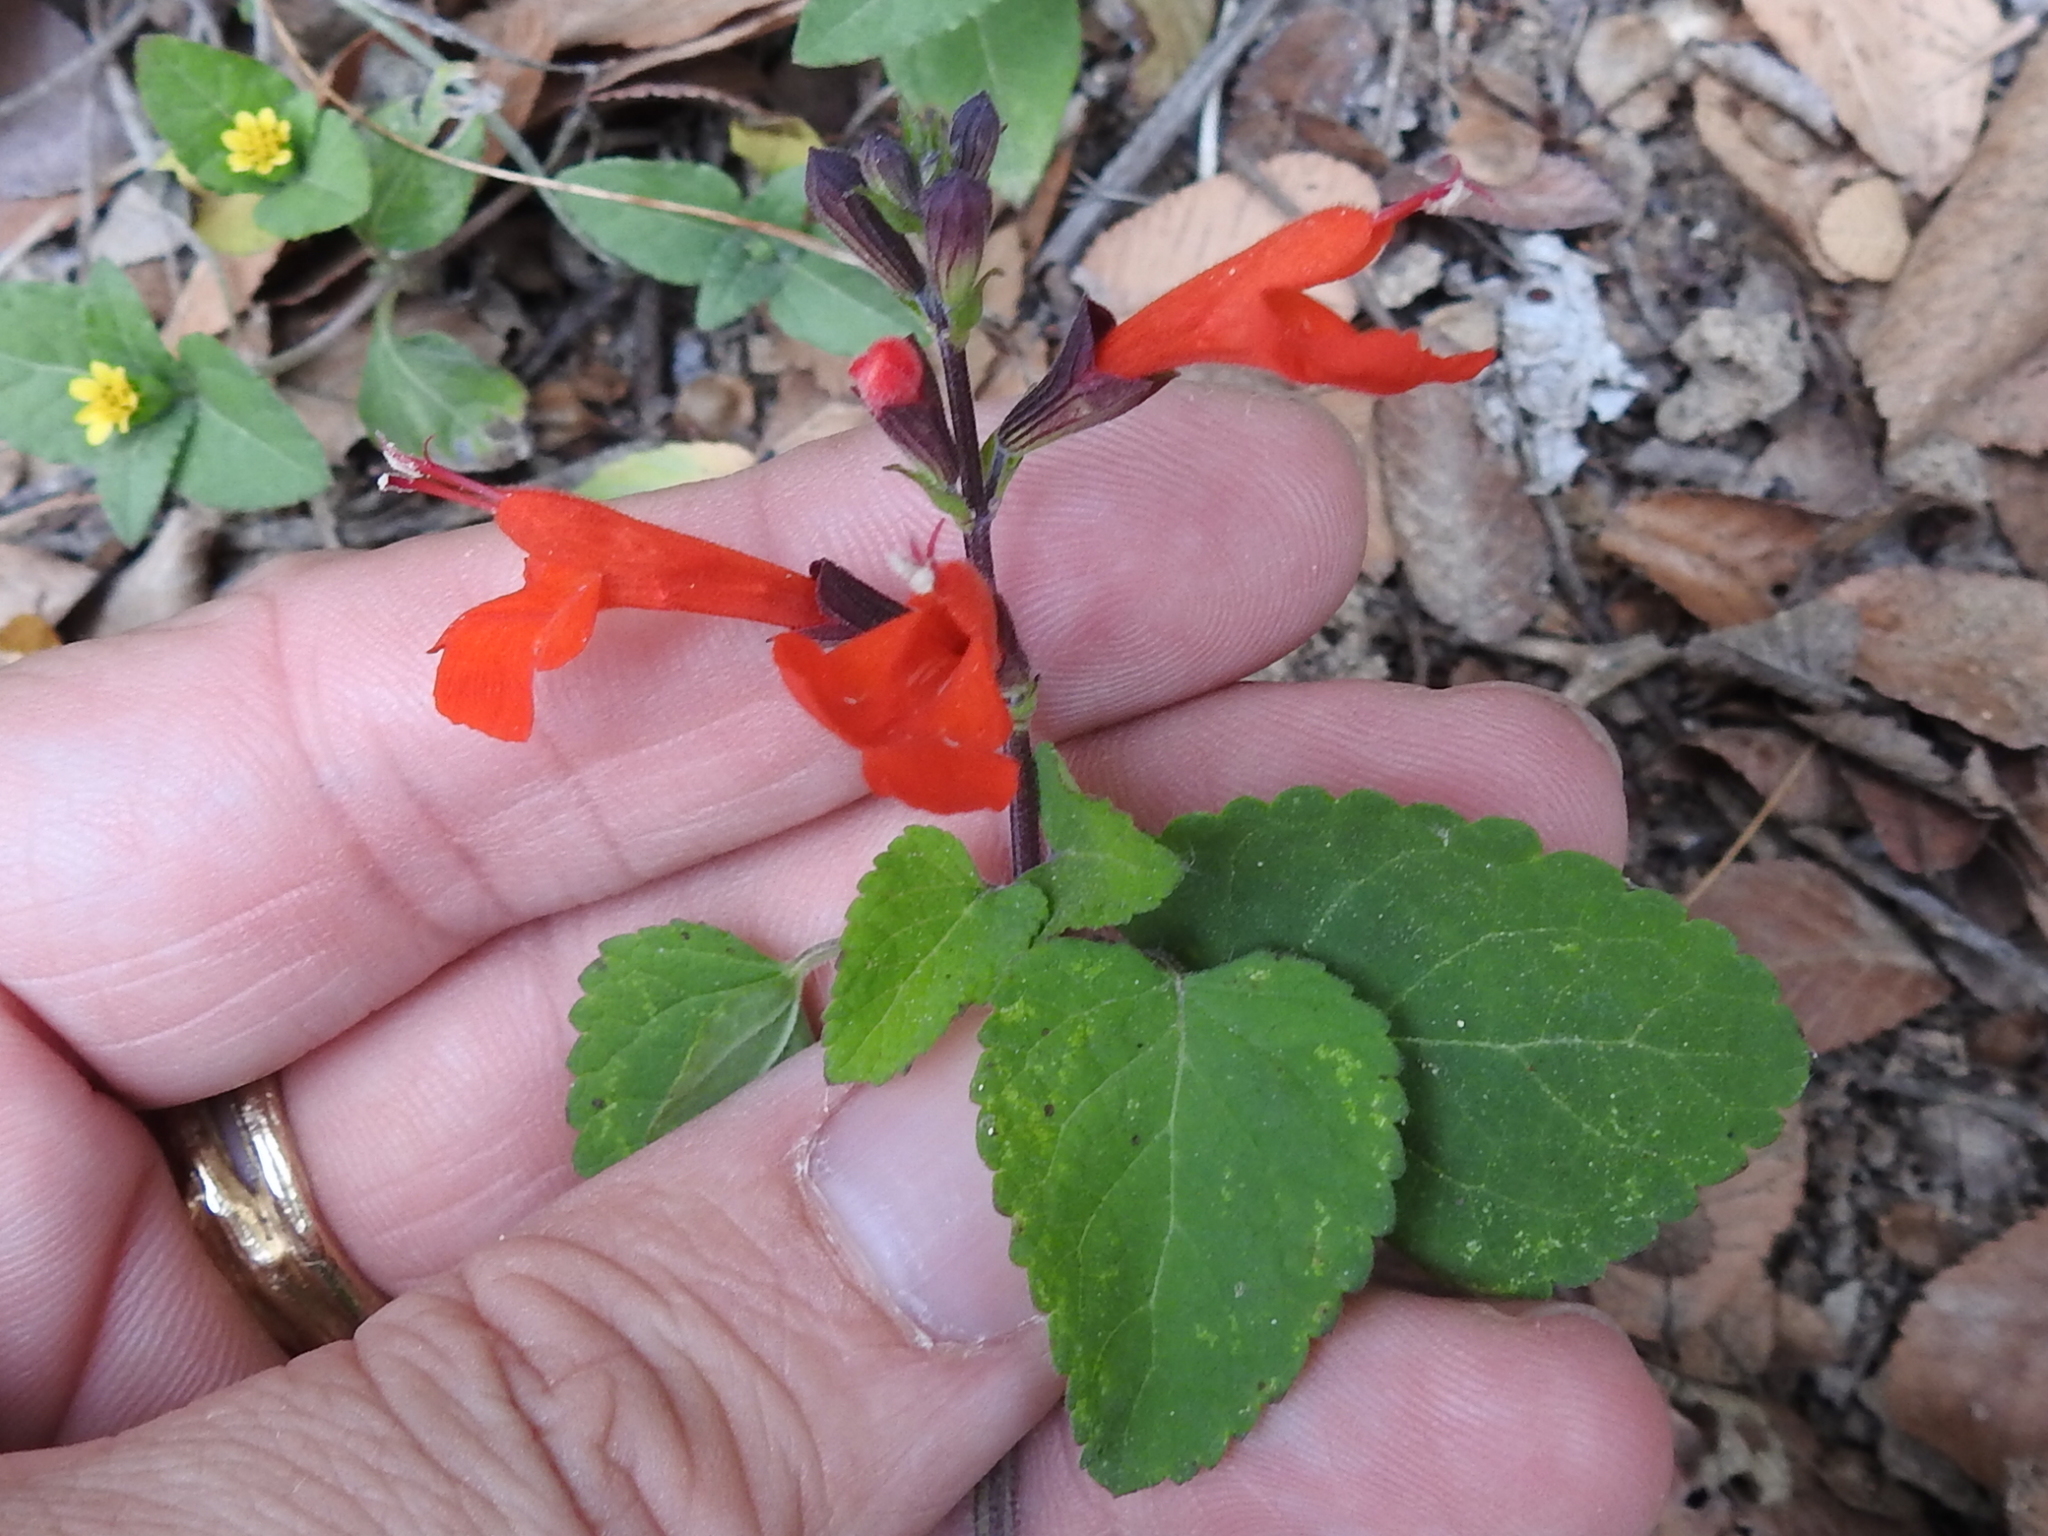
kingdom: Plantae
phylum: Tracheophyta
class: Magnoliopsida
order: Lamiales
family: Lamiaceae
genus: Salvia
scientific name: Salvia coccinea
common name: Blood sage
